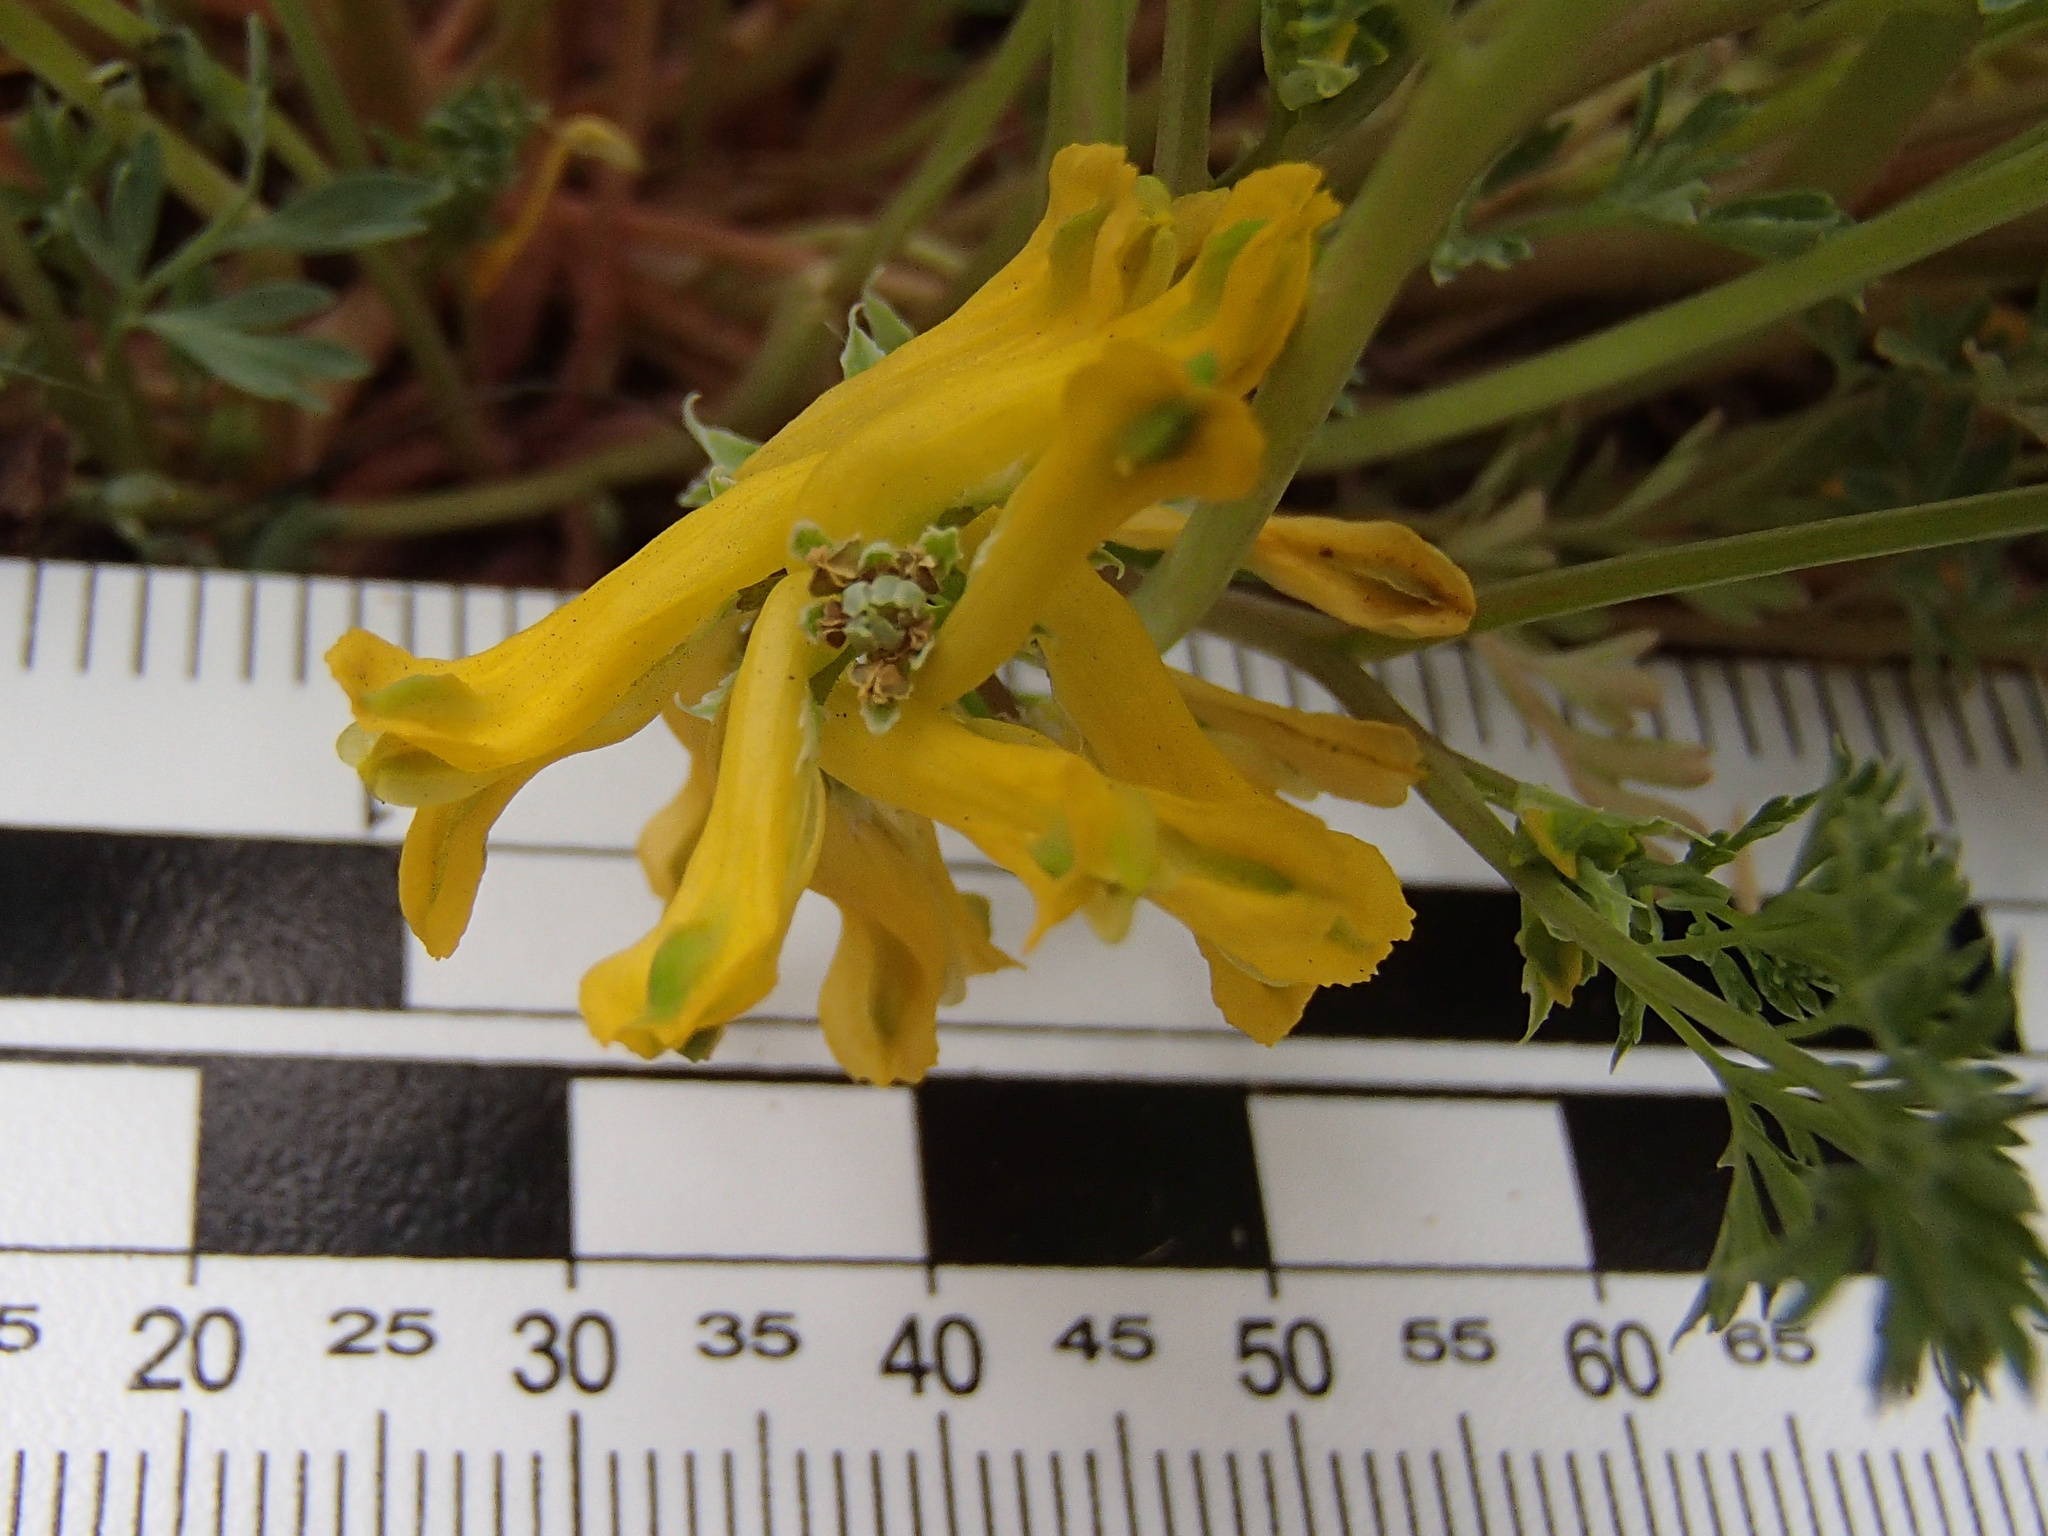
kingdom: Plantae
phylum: Tracheophyta
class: Magnoliopsida
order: Ranunculales
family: Papaveraceae
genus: Corydalis
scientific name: Corydalis aurea
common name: Golden corydalis
